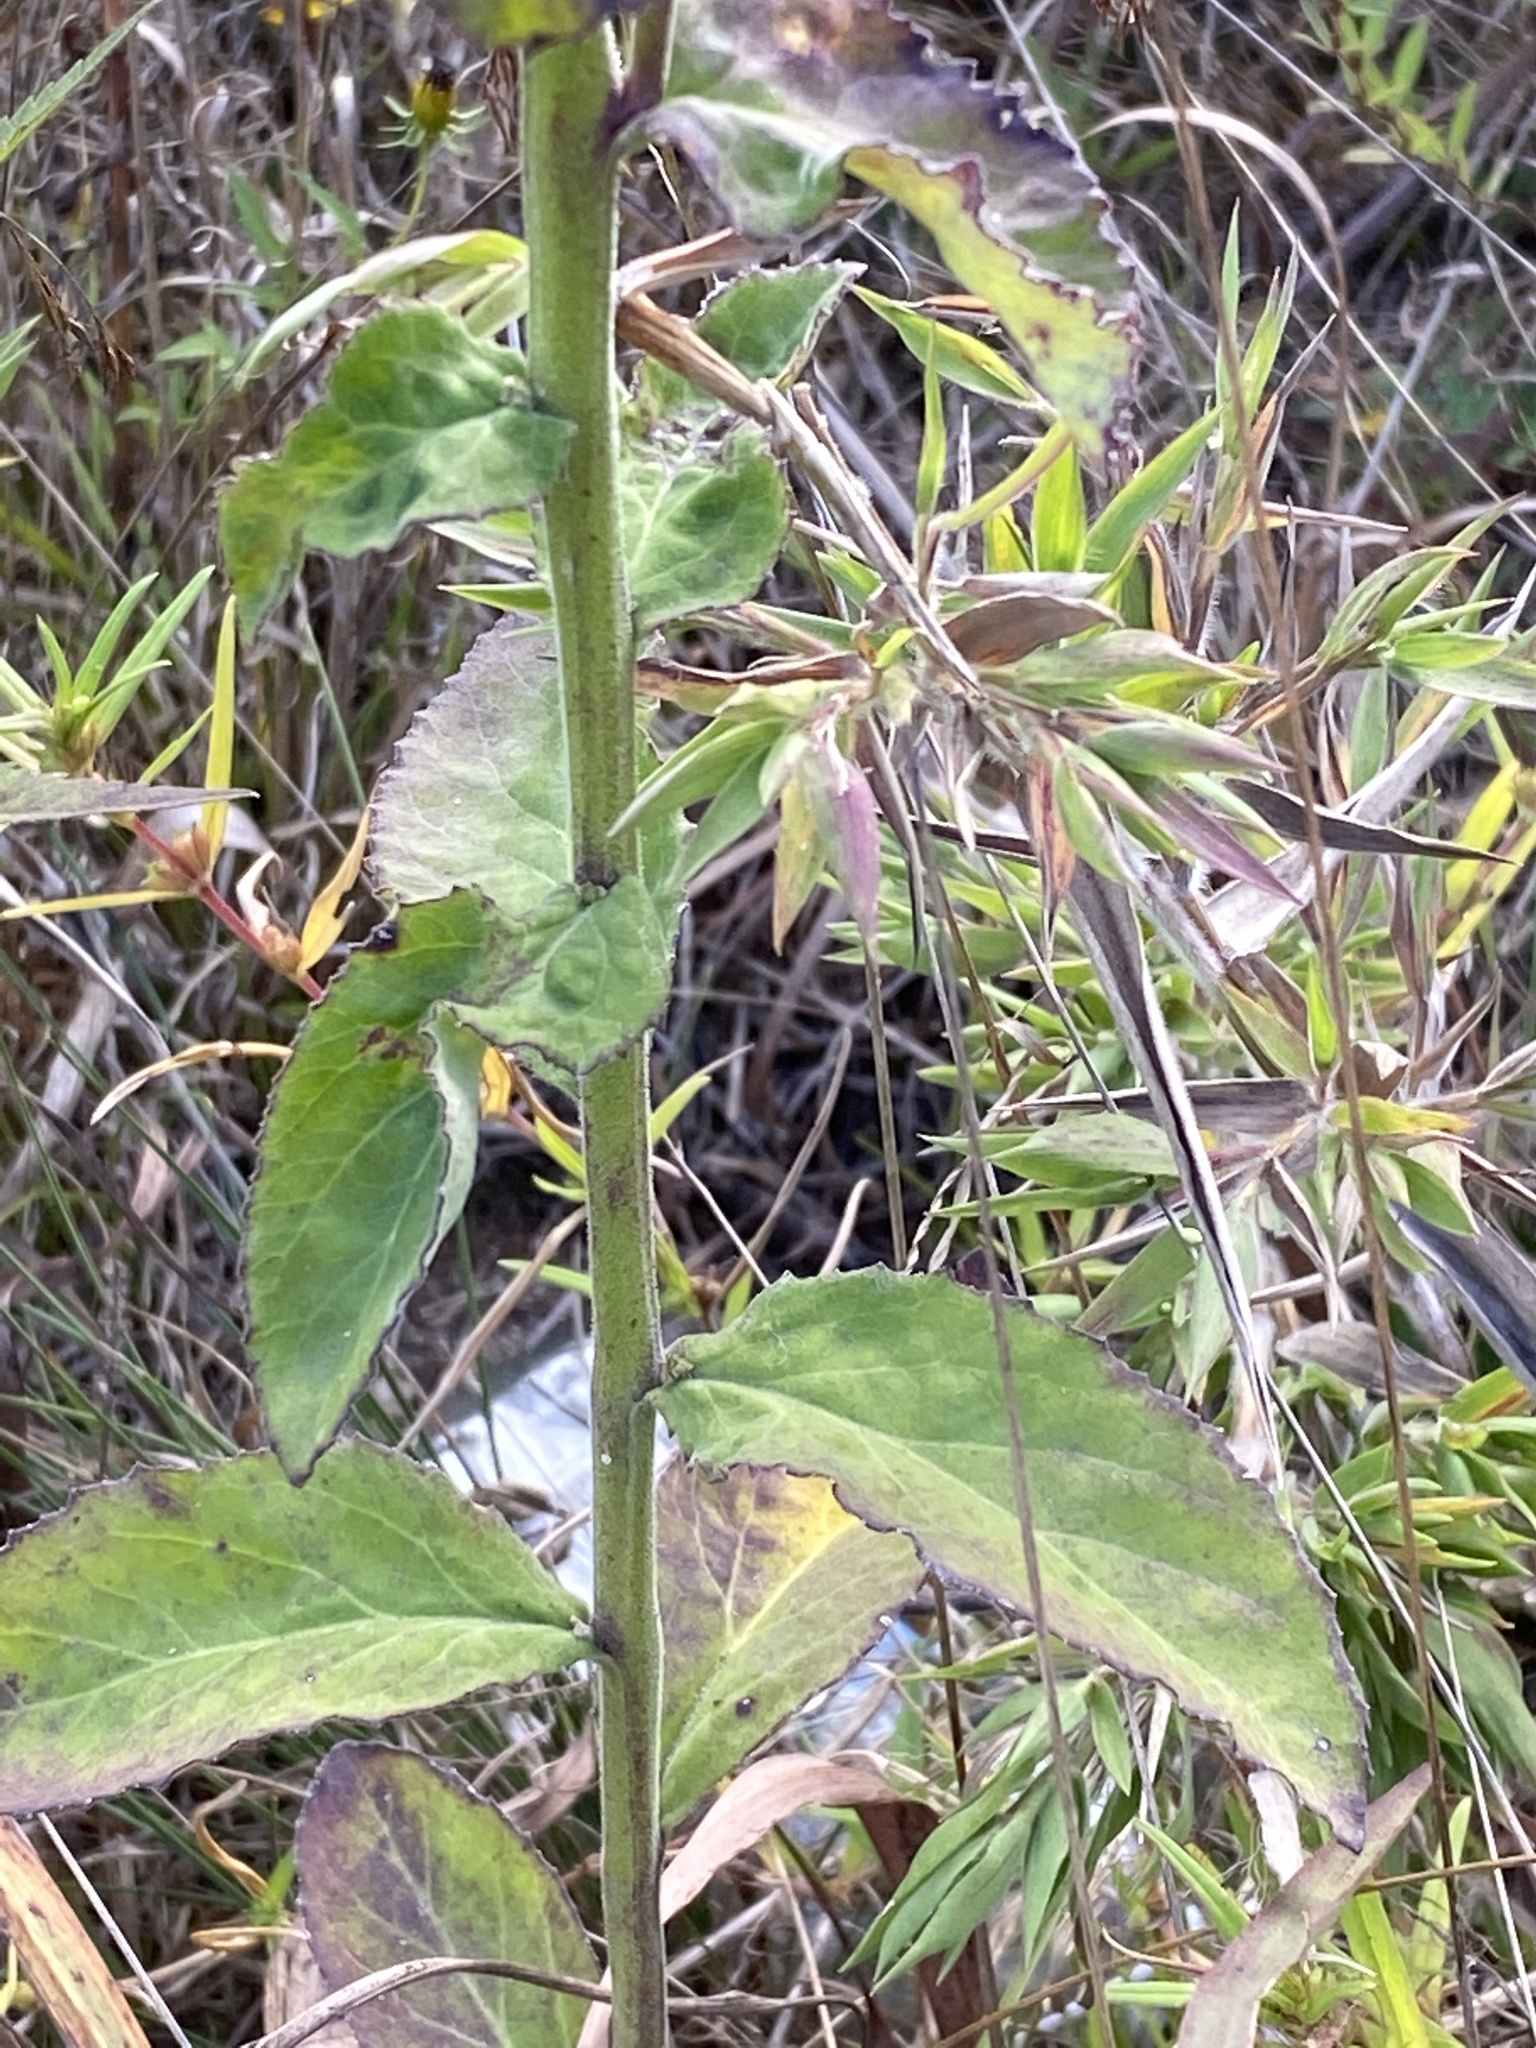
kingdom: Plantae
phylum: Tracheophyta
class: Magnoliopsida
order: Asterales
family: Campanulaceae
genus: Lobelia
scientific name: Lobelia puberula
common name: Purple dewdrop
